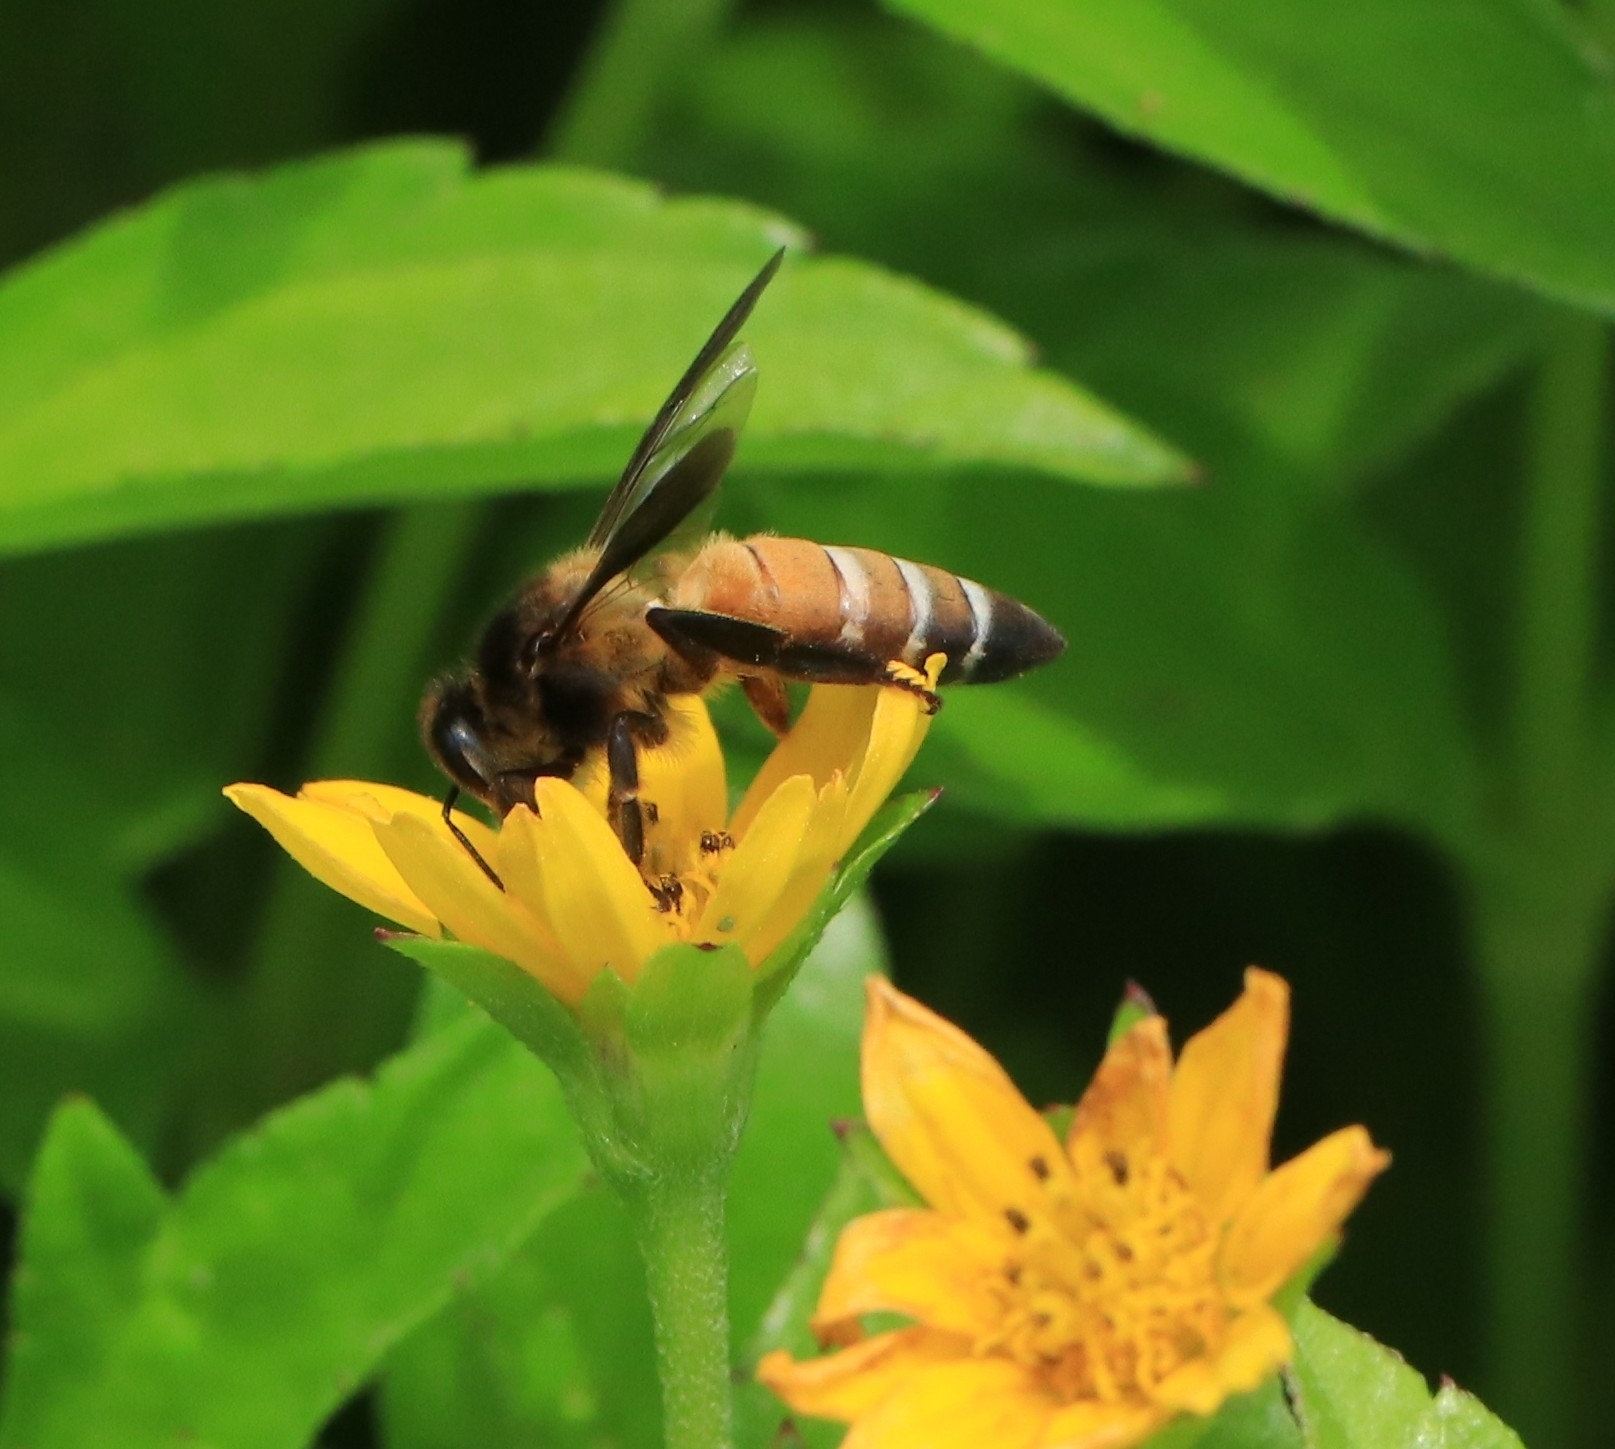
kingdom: Animalia
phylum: Arthropoda
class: Insecta
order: Hymenoptera
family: Apidae
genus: Apis
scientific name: Apis dorsata
